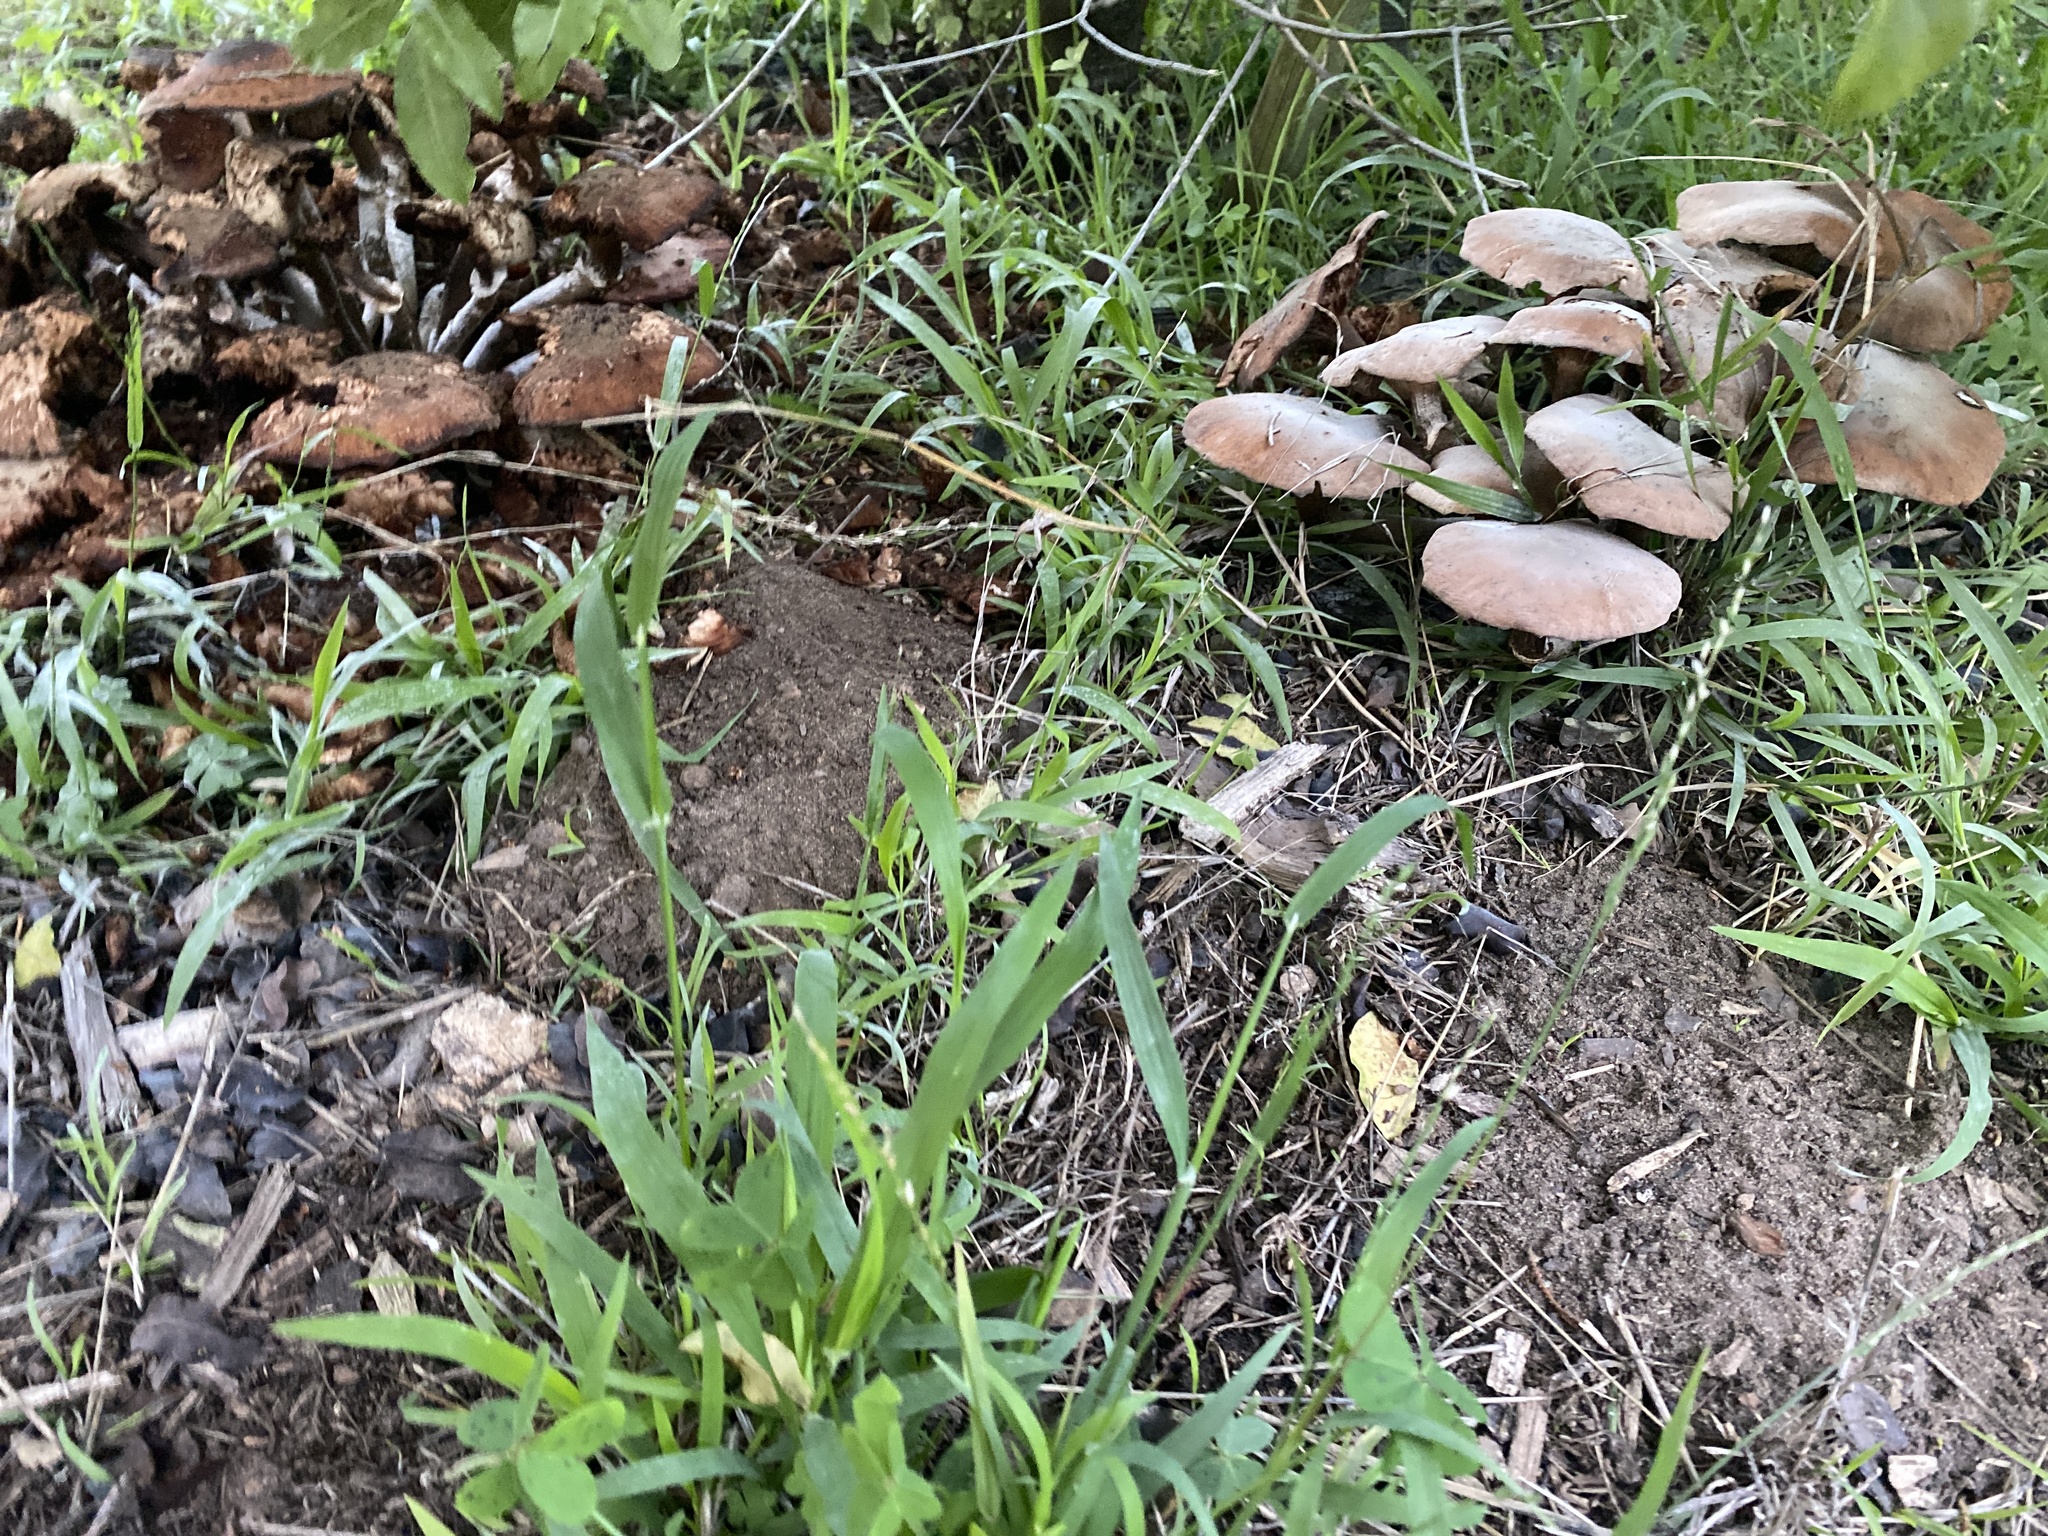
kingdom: Fungi
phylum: Basidiomycota
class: Agaricomycetes
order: Agaricales
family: Physalacriaceae
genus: Armillaria
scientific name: Armillaria mellea
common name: Honey fungus
